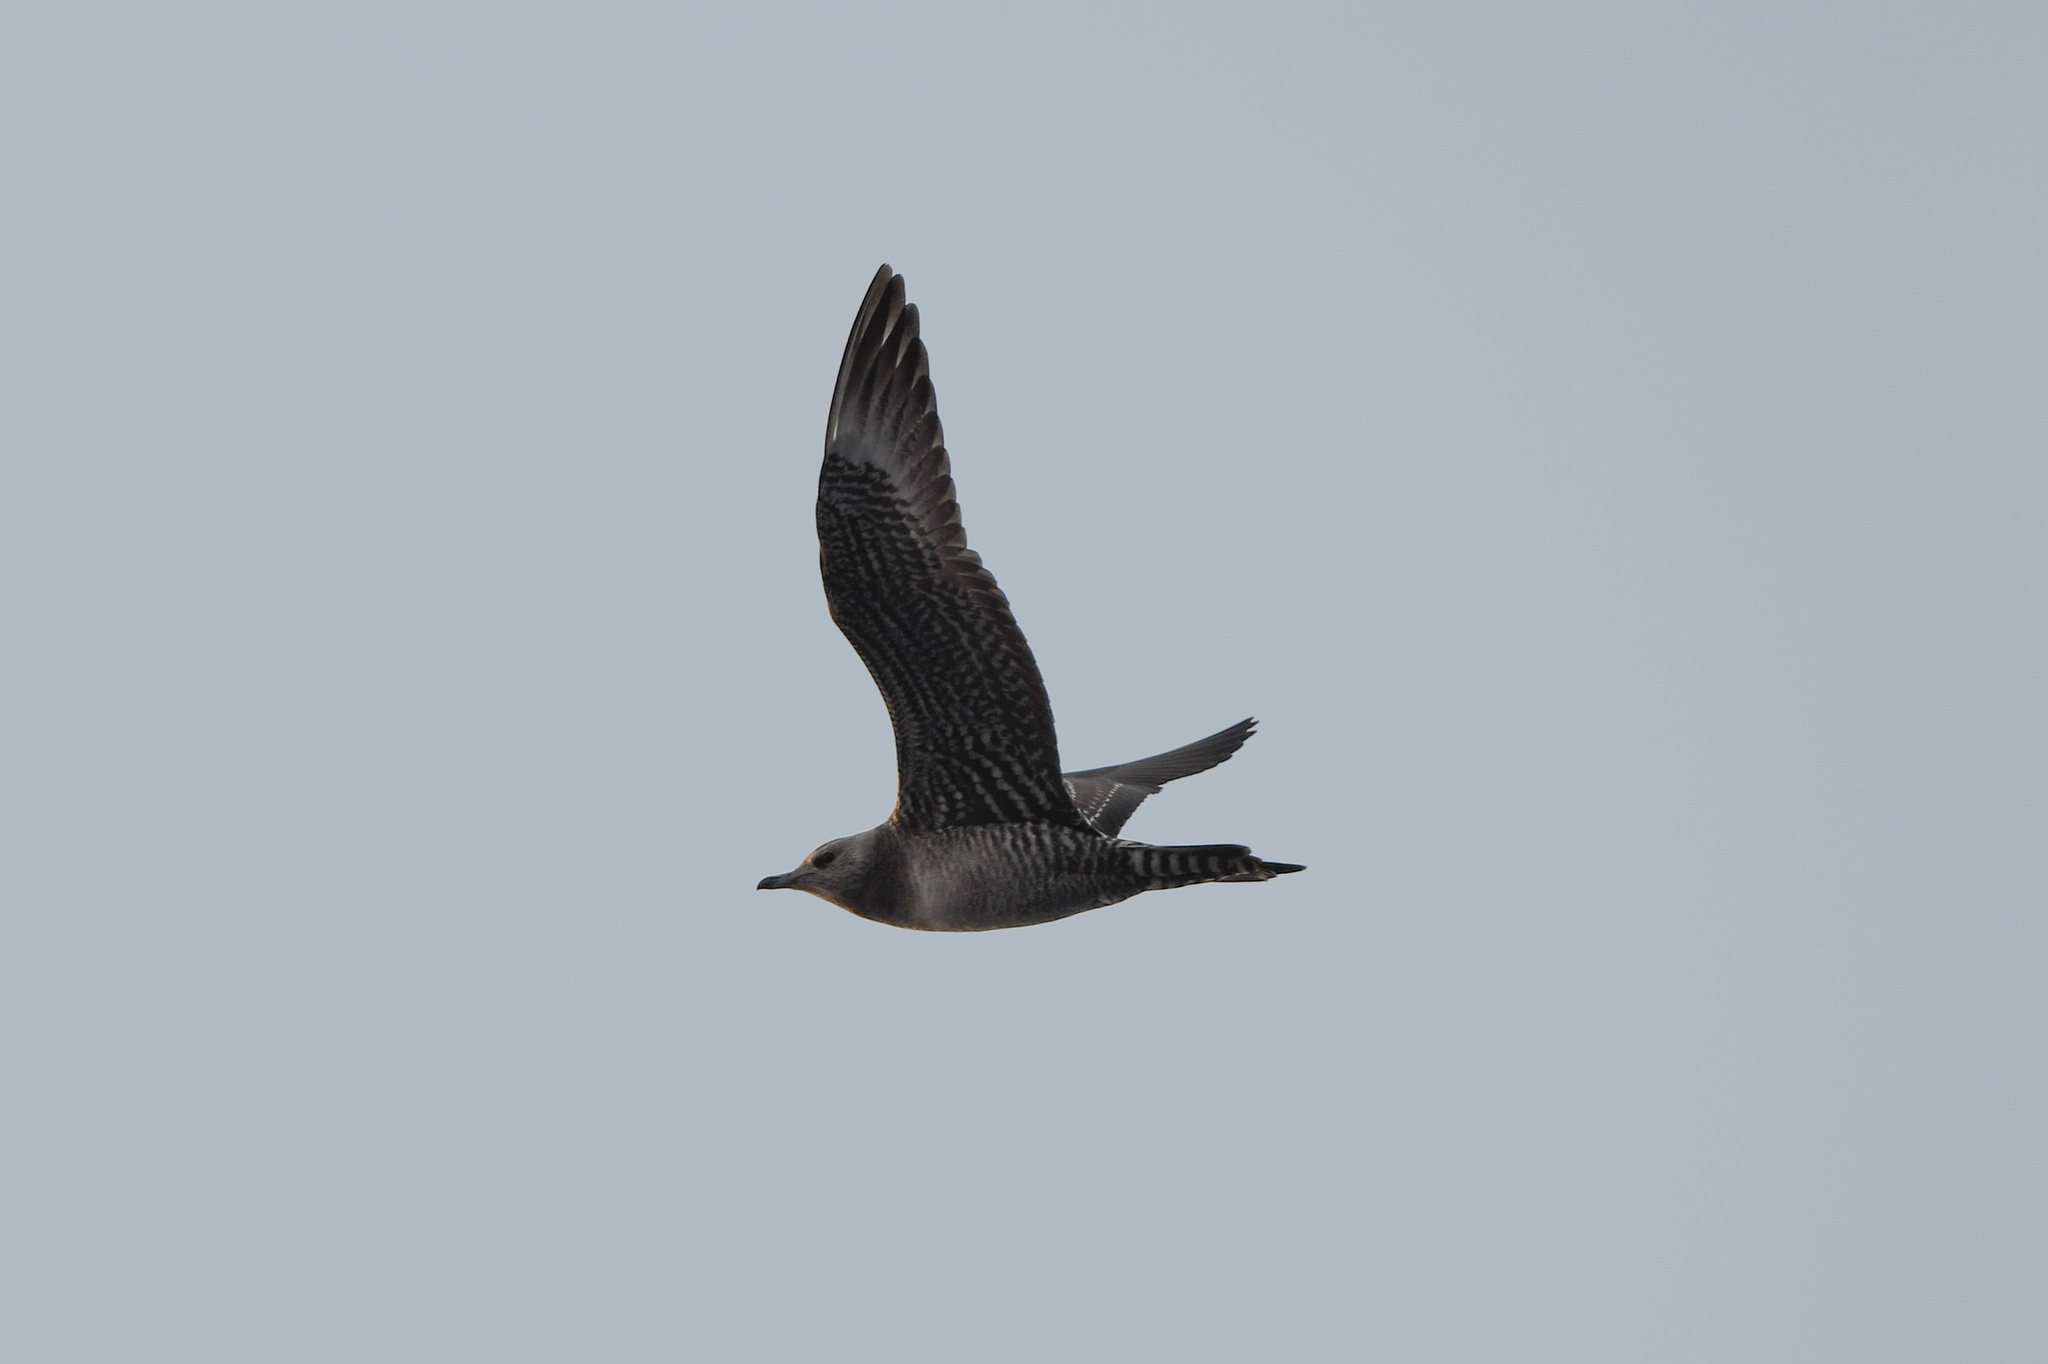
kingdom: Animalia
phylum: Chordata
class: Aves
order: Charadriiformes
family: Stercorariidae
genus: Stercorarius
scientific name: Stercorarius longicaudus
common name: Long-tailed jaeger
